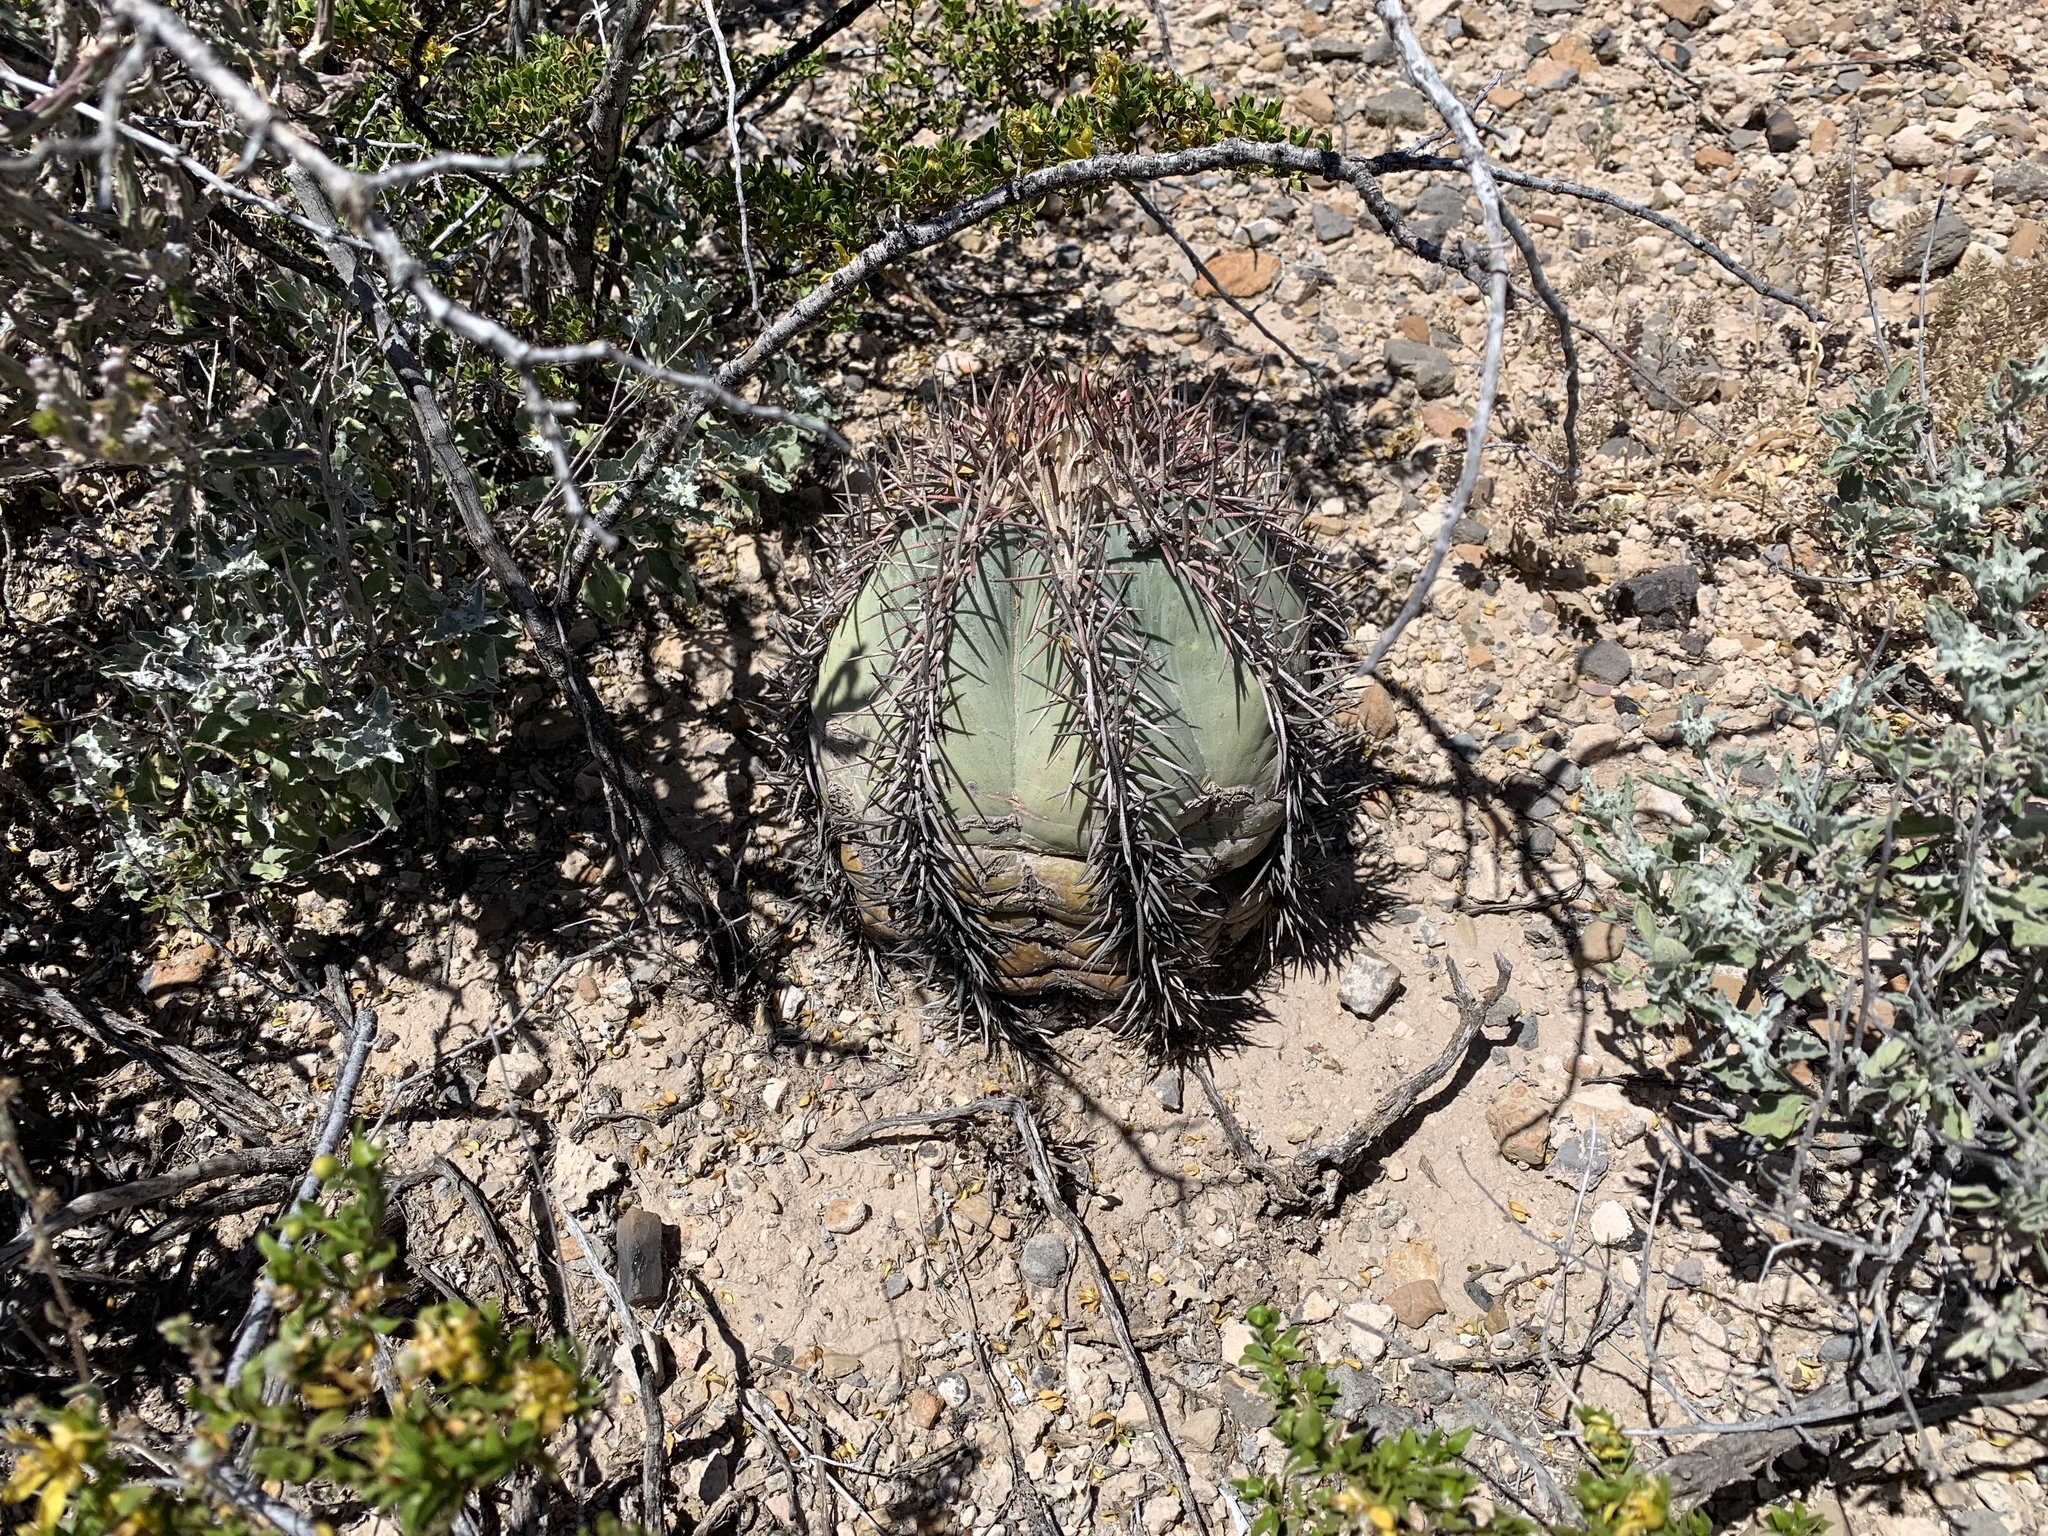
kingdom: Plantae
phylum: Tracheophyta
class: Magnoliopsida
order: Caryophyllales
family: Cactaceae
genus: Echinocactus
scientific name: Echinocactus horizonthalonius
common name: Devilshead
